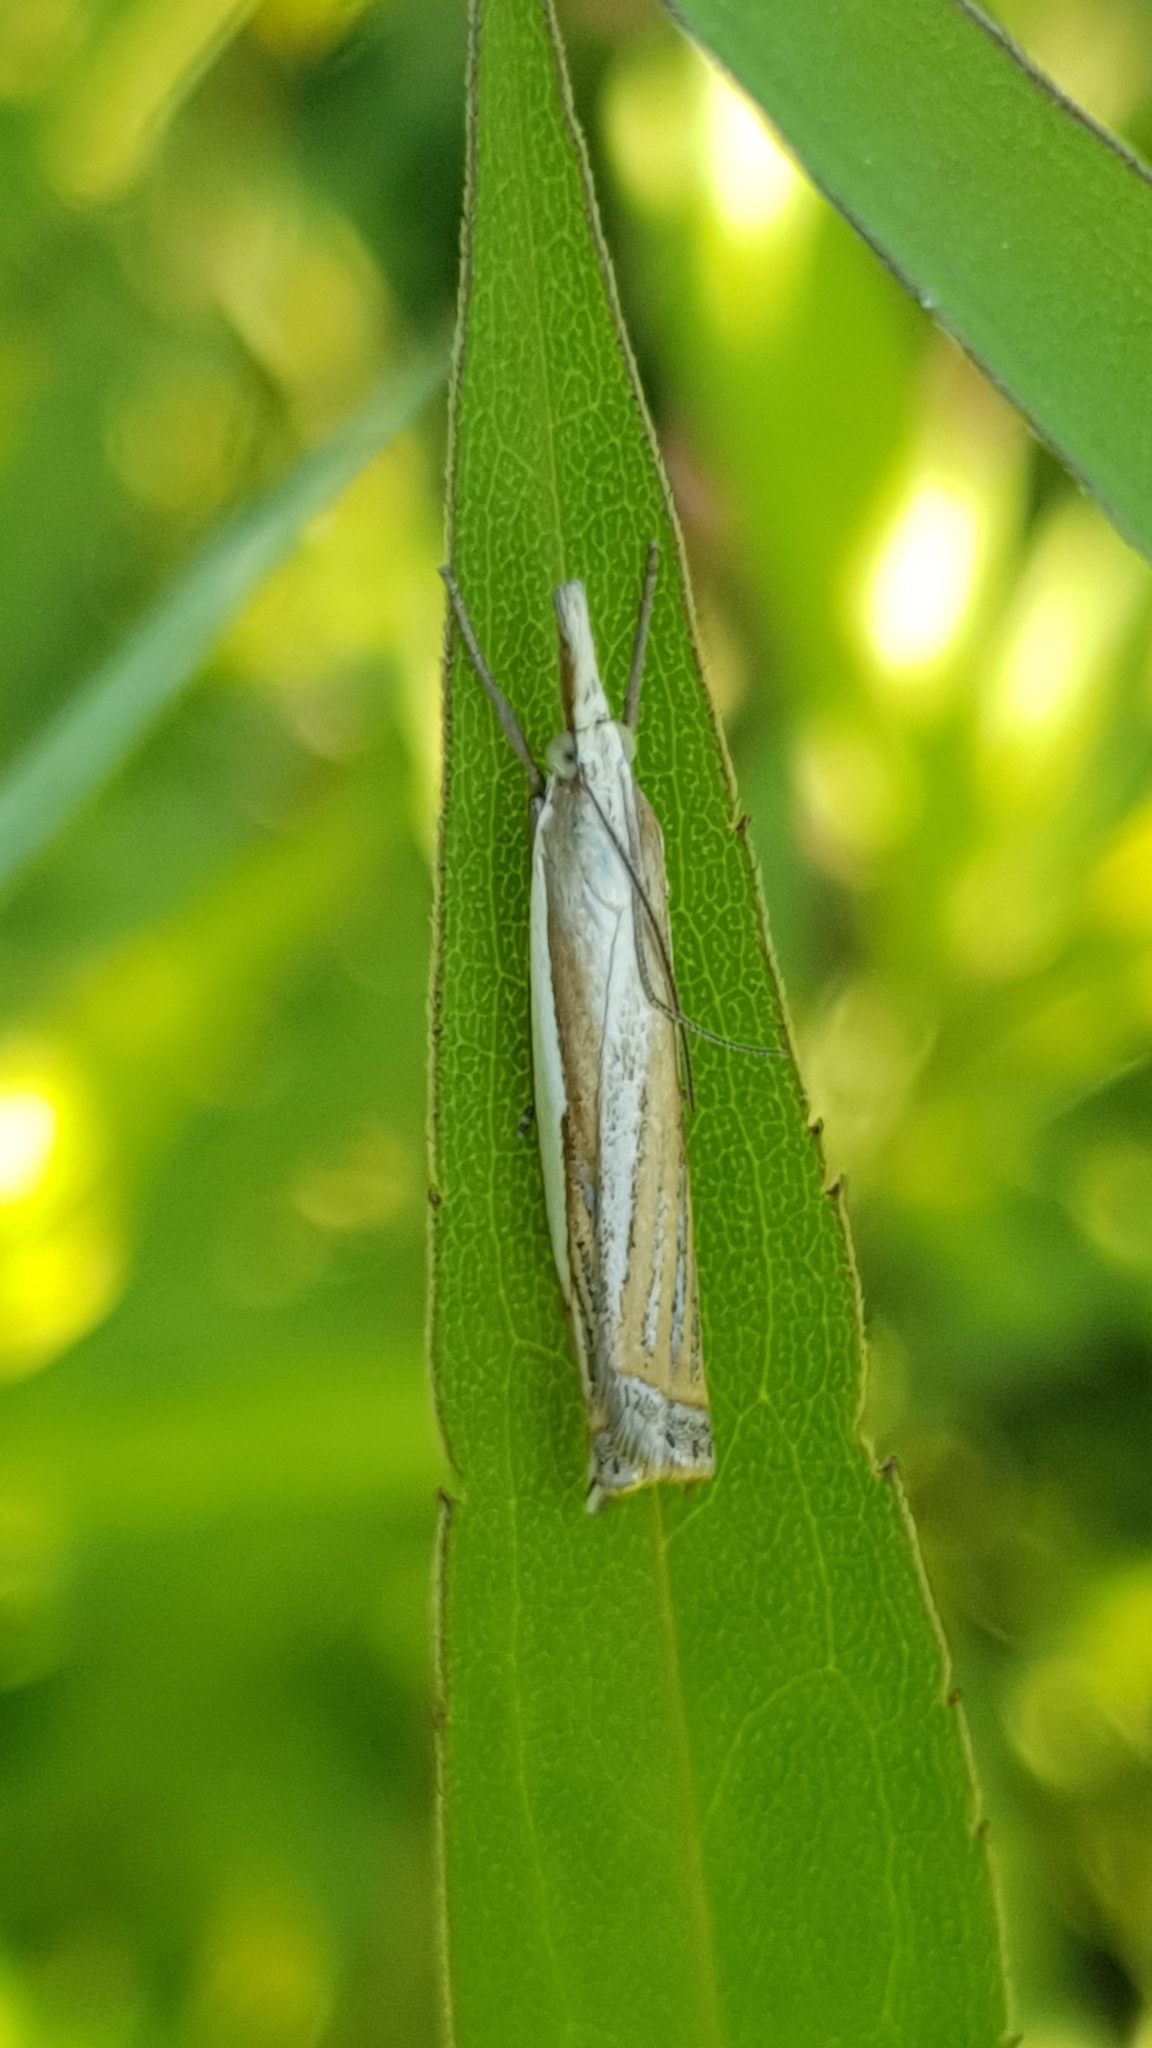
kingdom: Animalia
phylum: Arthropoda
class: Insecta
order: Lepidoptera
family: Crambidae
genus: Crambus
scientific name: Crambus pascuella
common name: Inlaid grass-veneer
